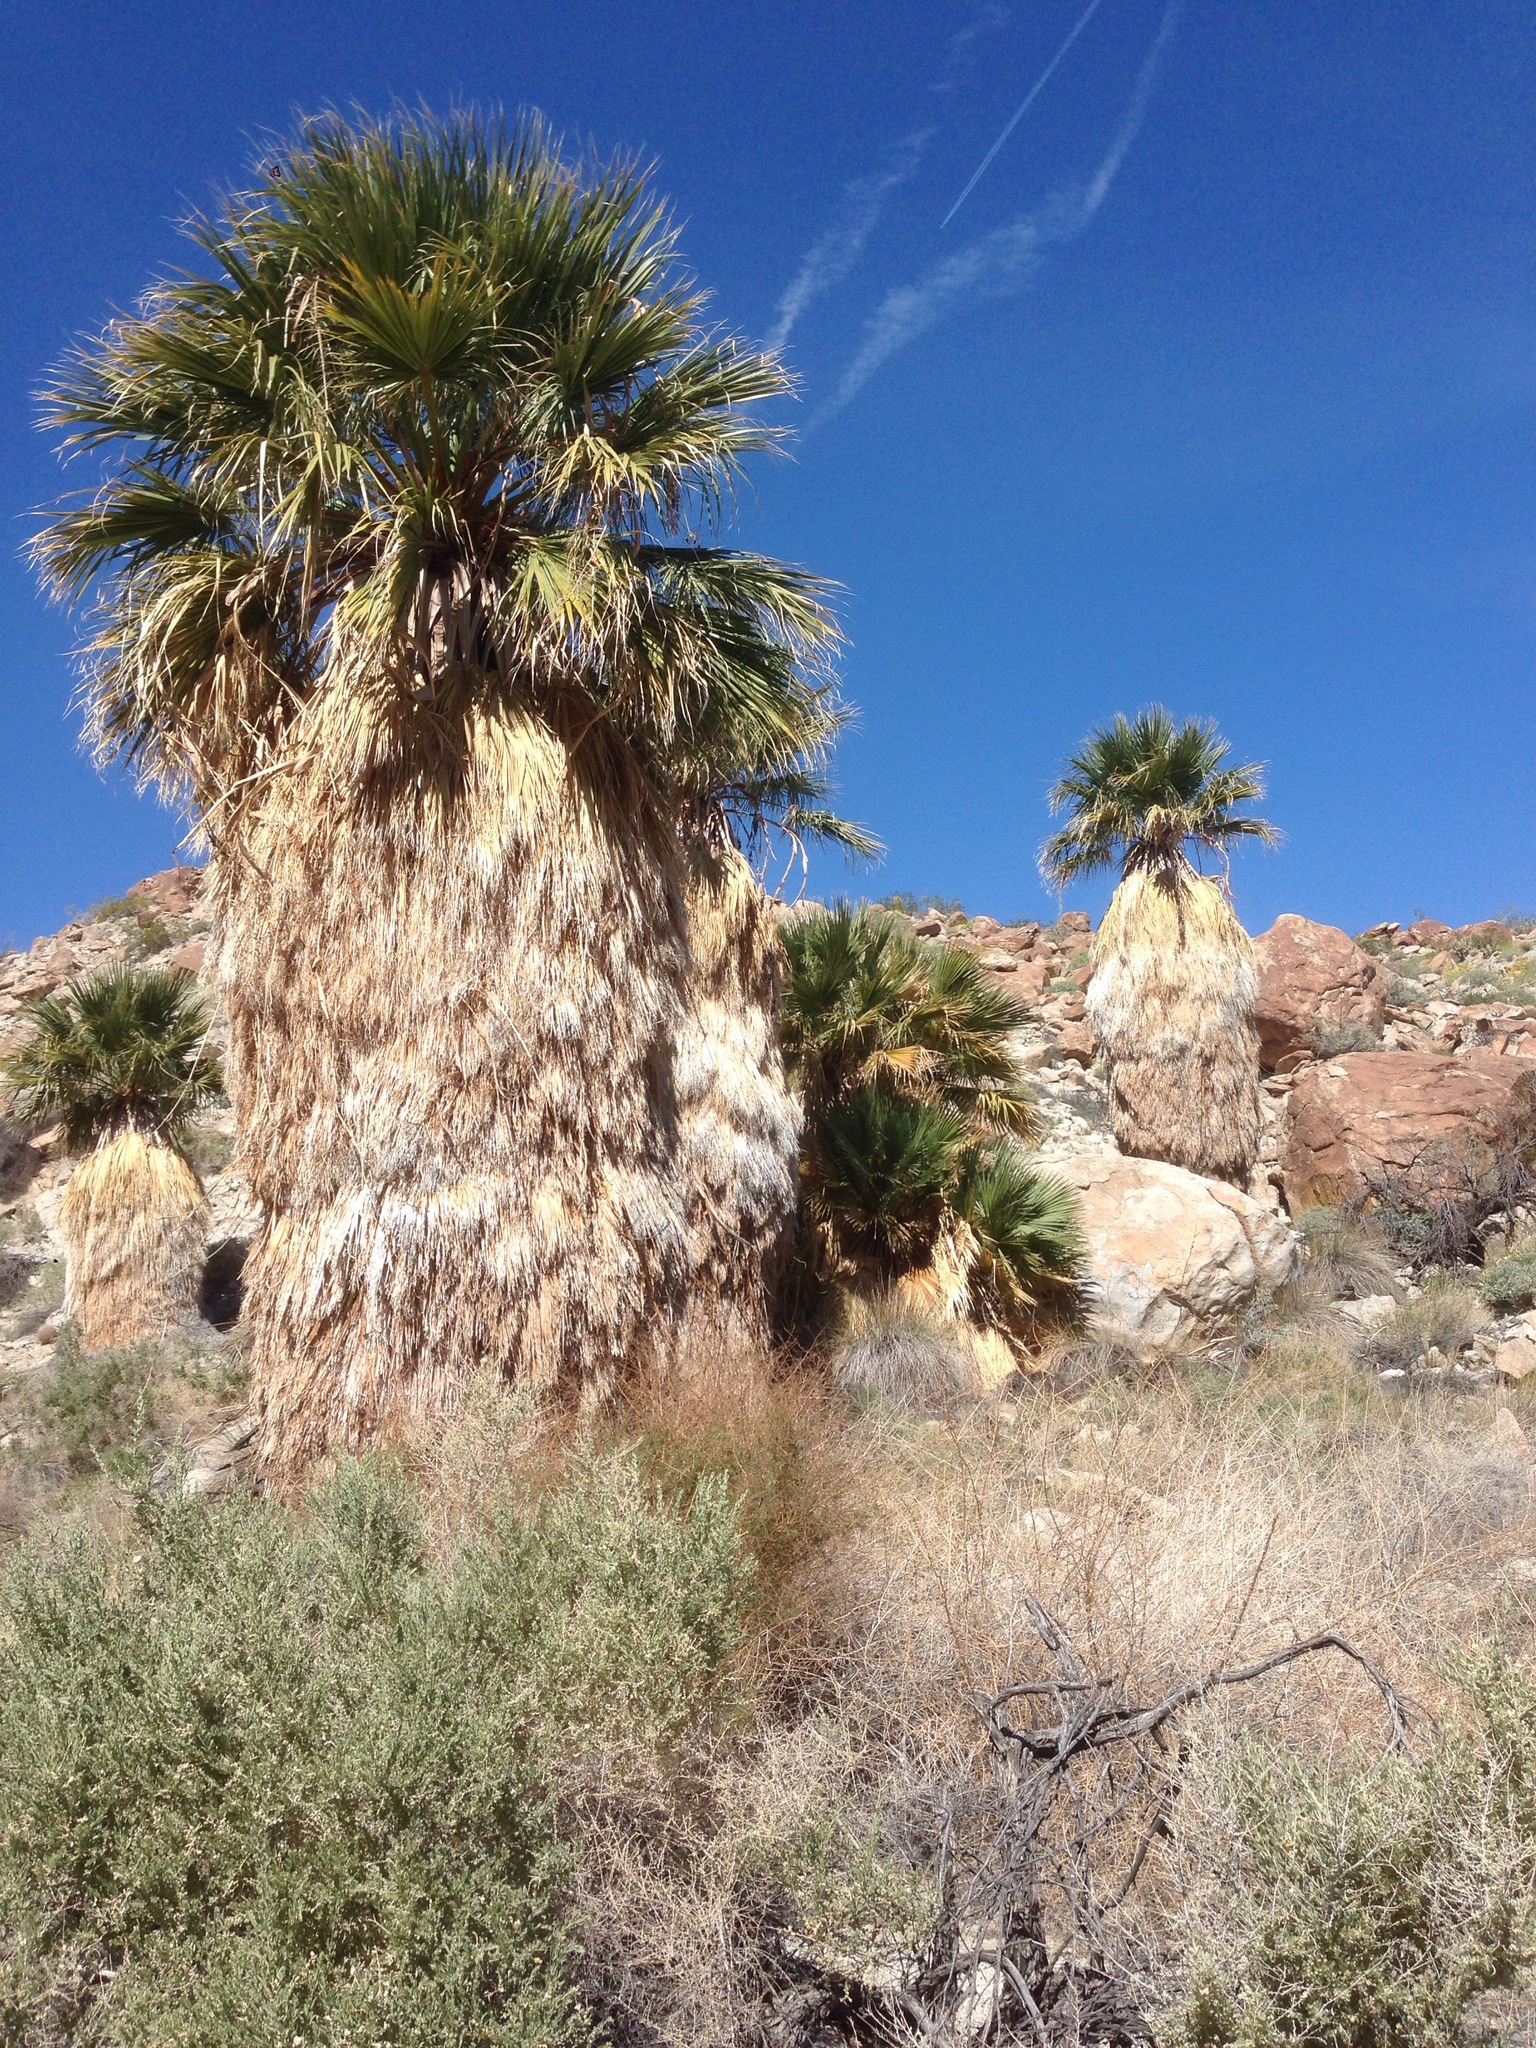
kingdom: Plantae
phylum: Tracheophyta
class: Liliopsida
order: Arecales
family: Arecaceae
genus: Washingtonia
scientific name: Washingtonia filifera
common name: California fan palm
